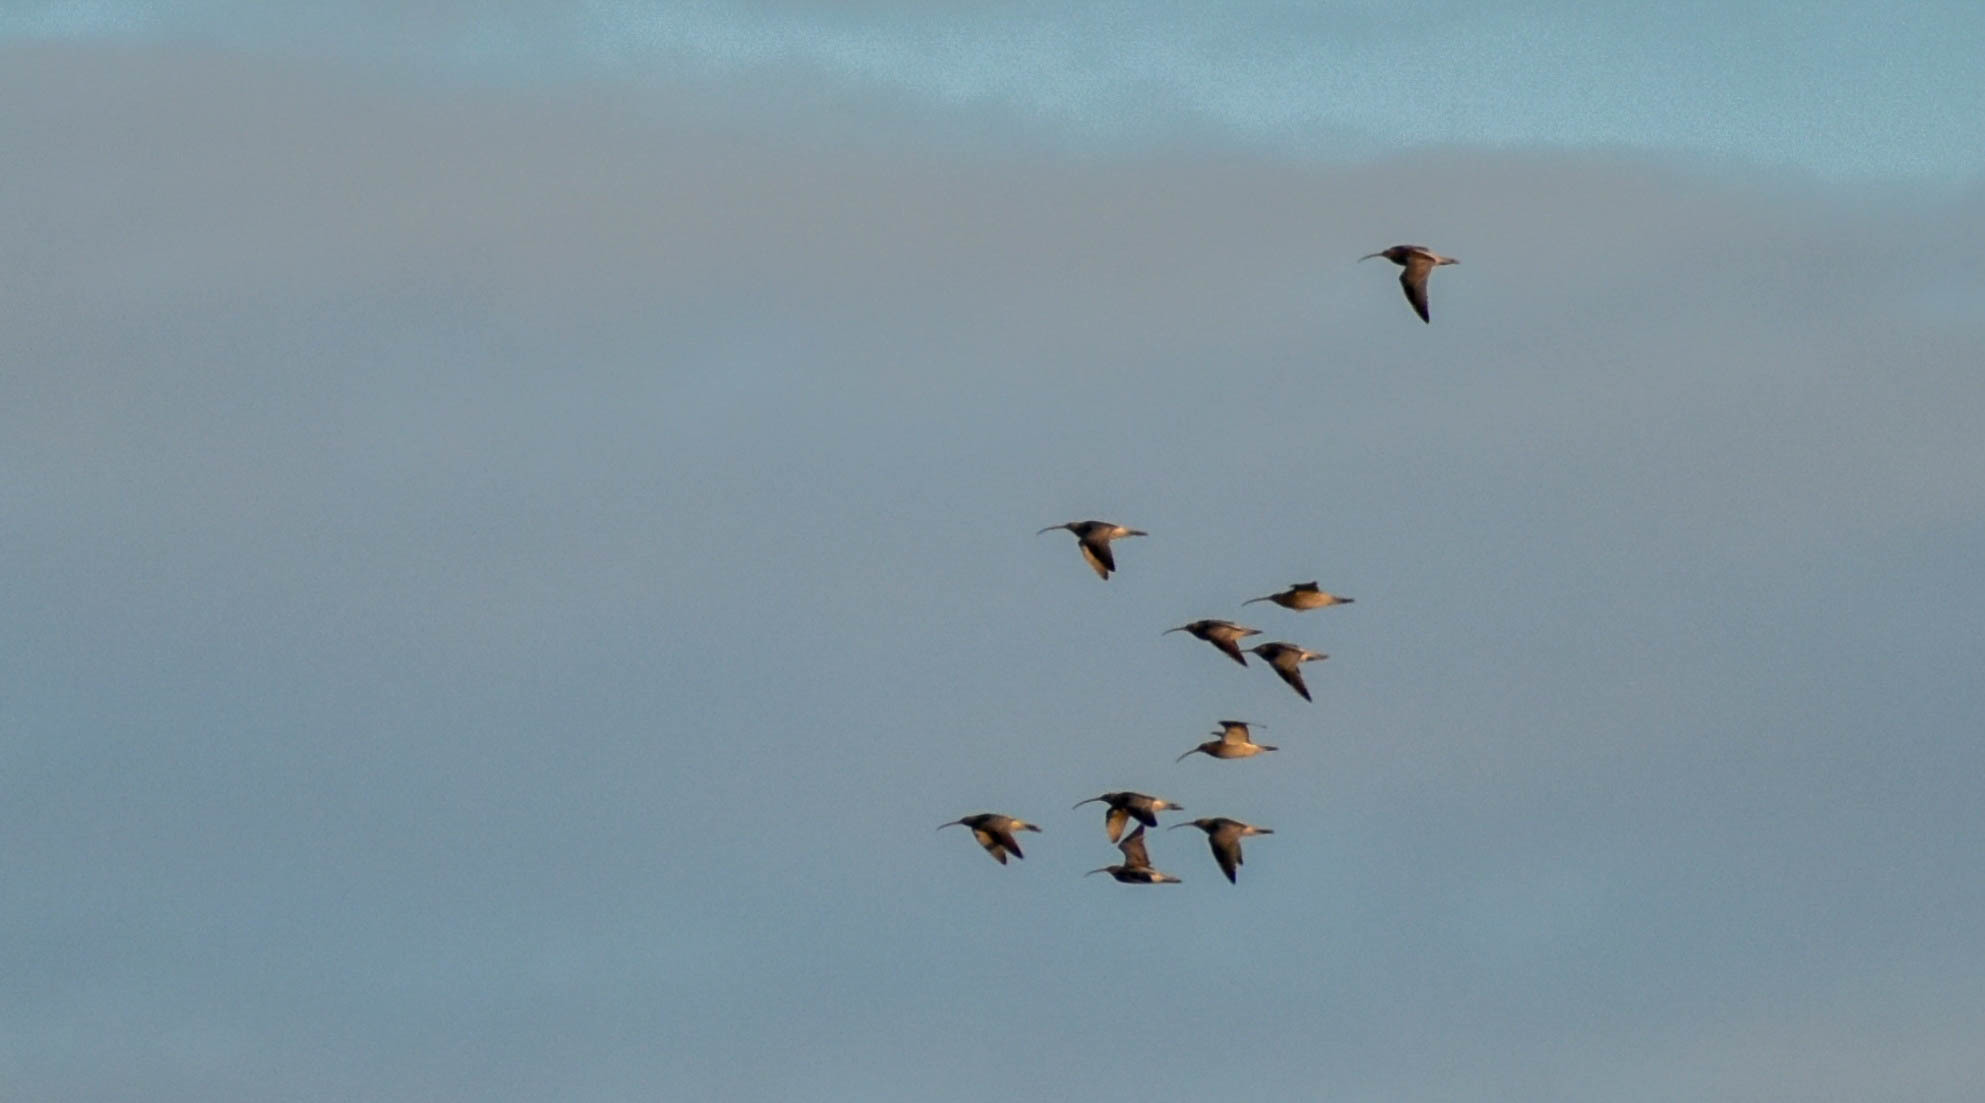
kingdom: Animalia
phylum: Chordata
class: Aves
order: Charadriiformes
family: Scolopacidae
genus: Numenius
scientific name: Numenius arquata
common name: Eurasian curlew
